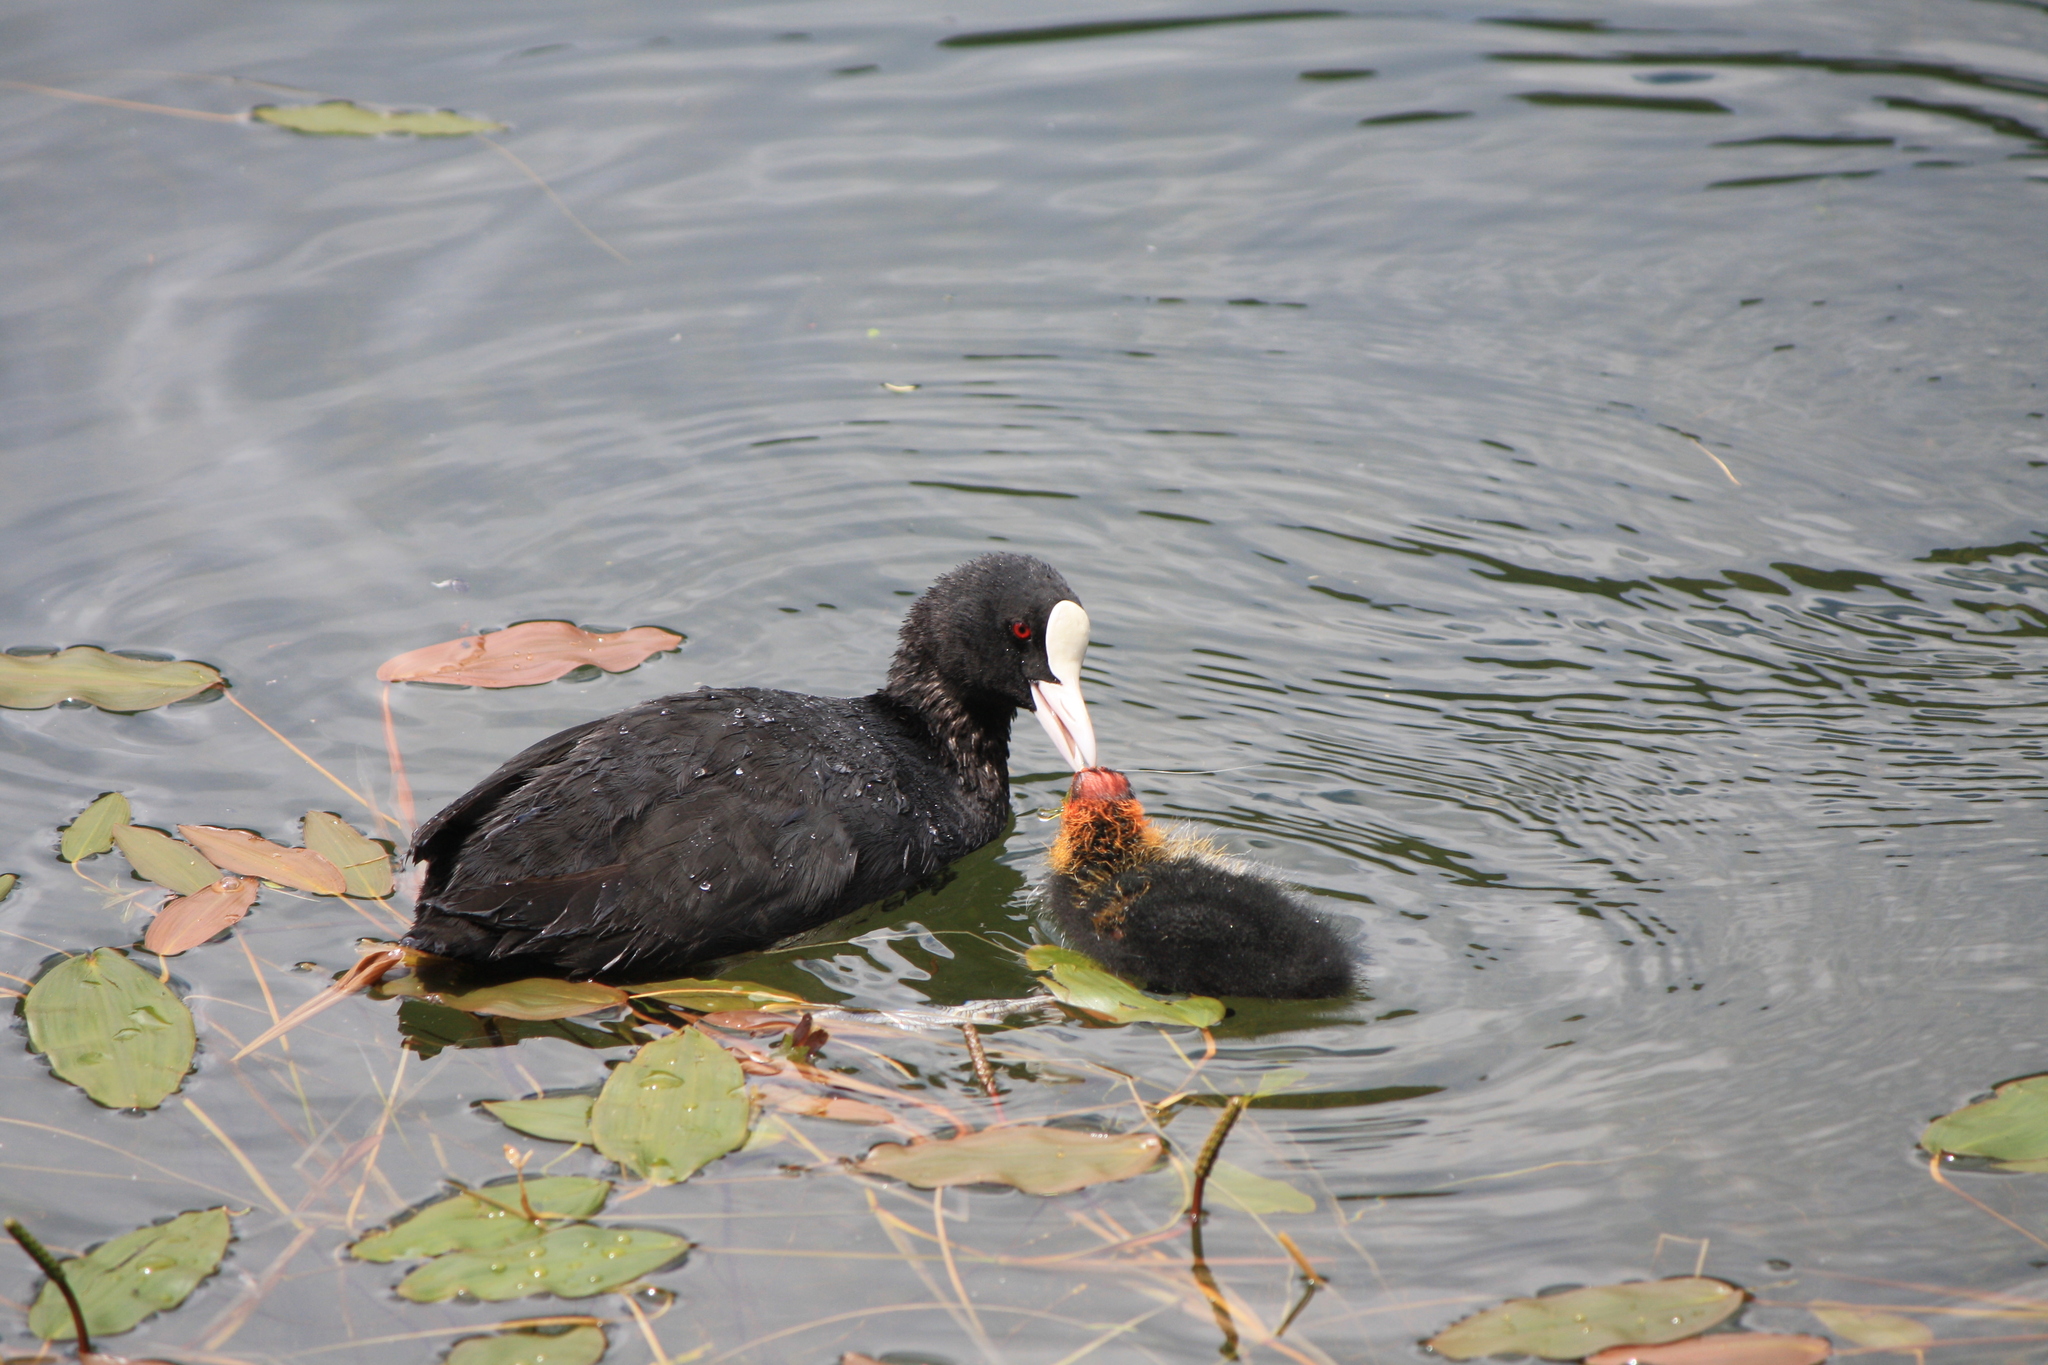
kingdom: Animalia
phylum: Chordata
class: Aves
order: Gruiformes
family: Rallidae
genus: Fulica
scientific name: Fulica atra
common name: Eurasian coot
